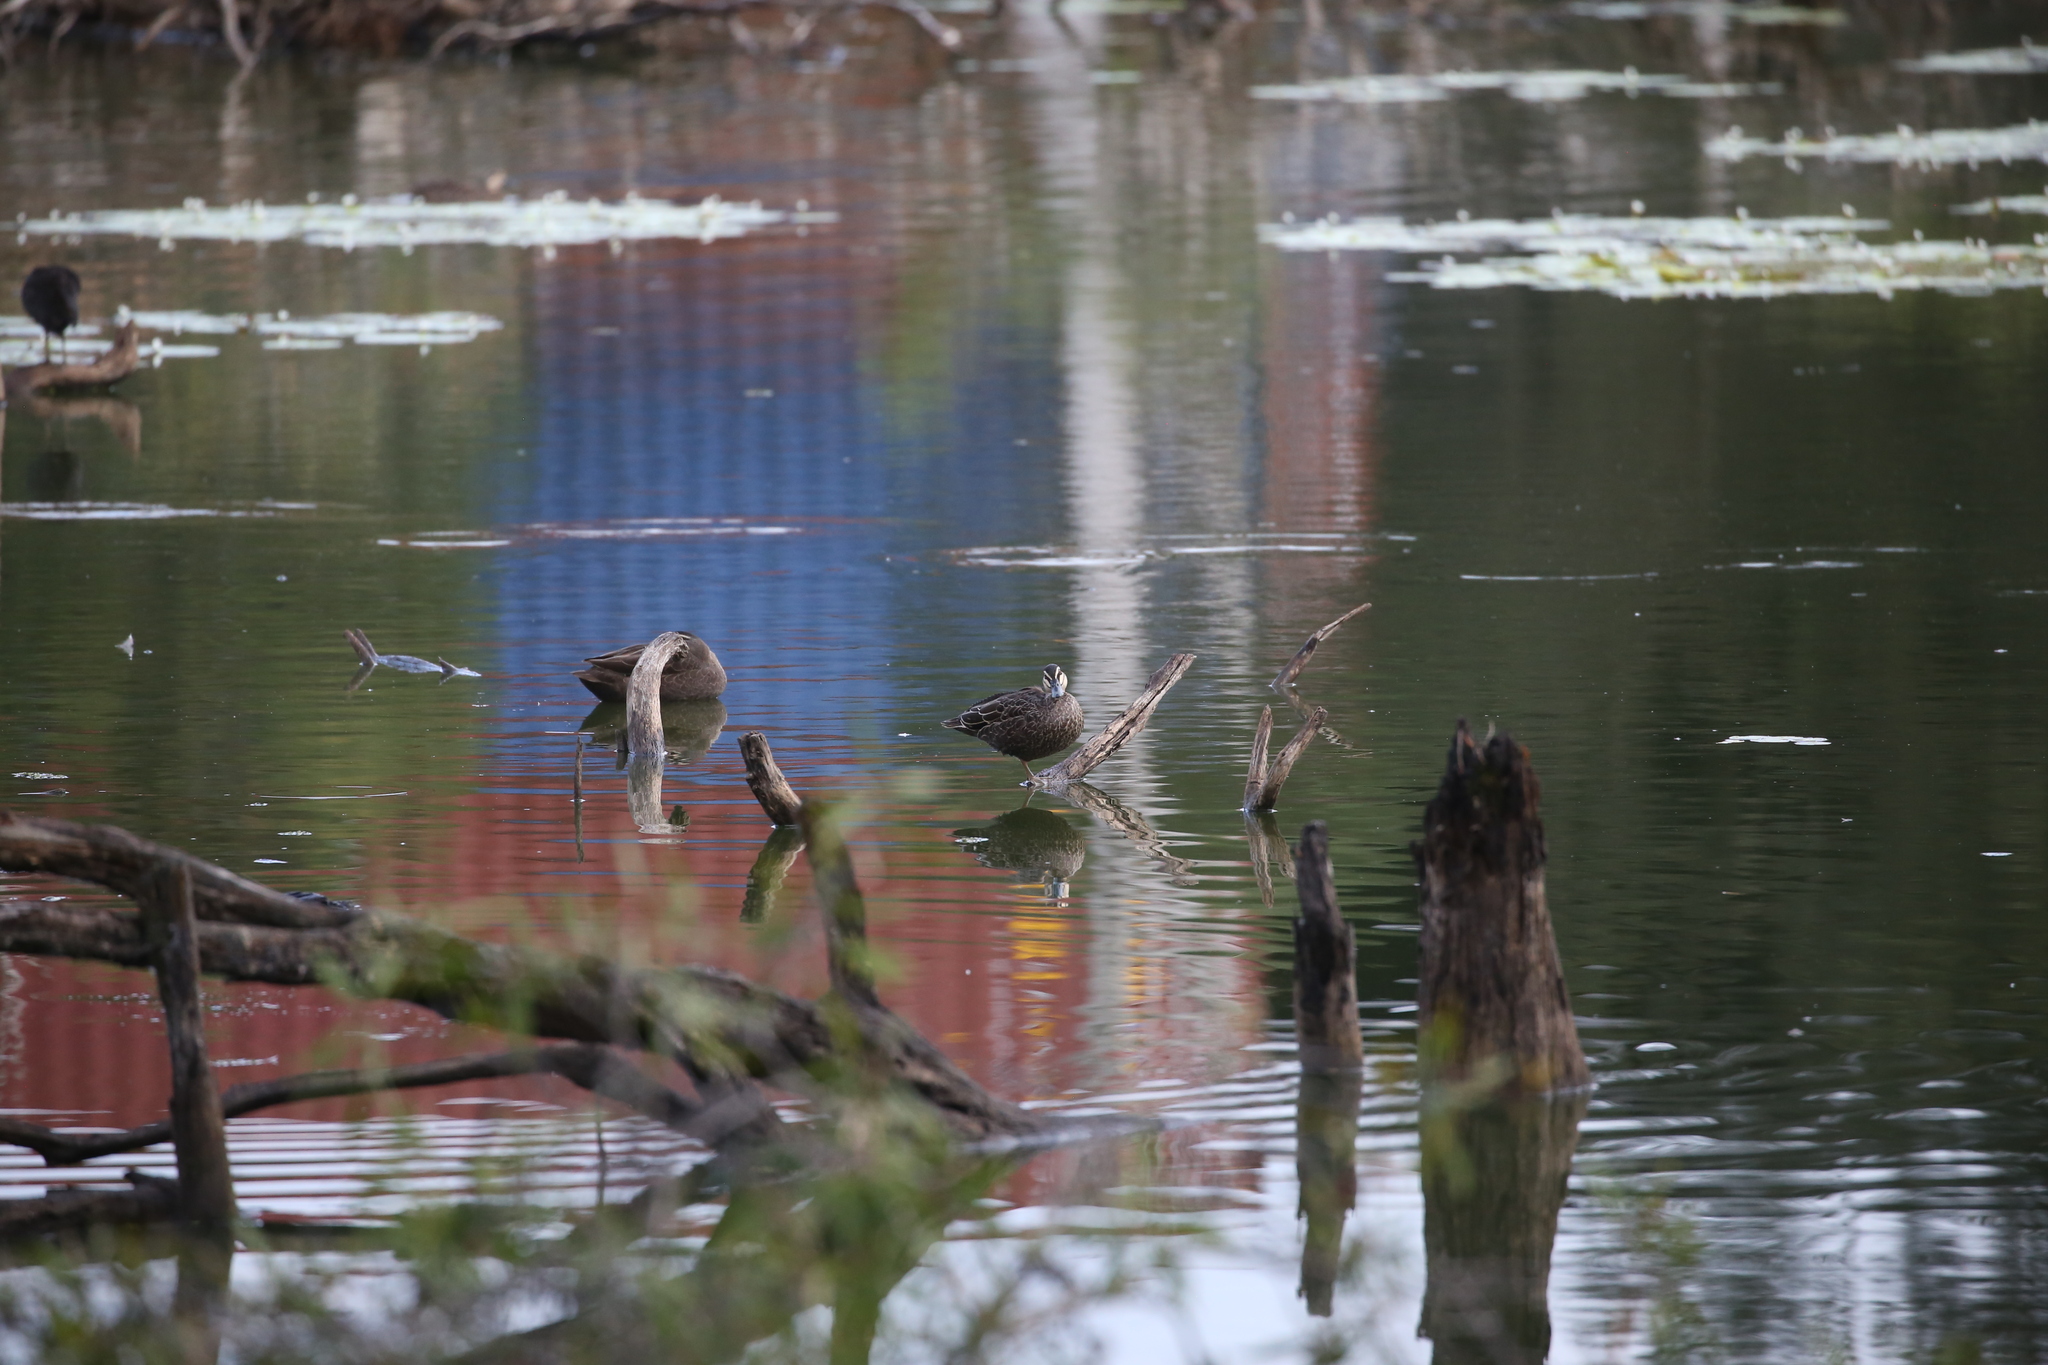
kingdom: Animalia
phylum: Chordata
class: Aves
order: Anseriformes
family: Anatidae
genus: Anas
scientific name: Anas superciliosa
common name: Pacific black duck
